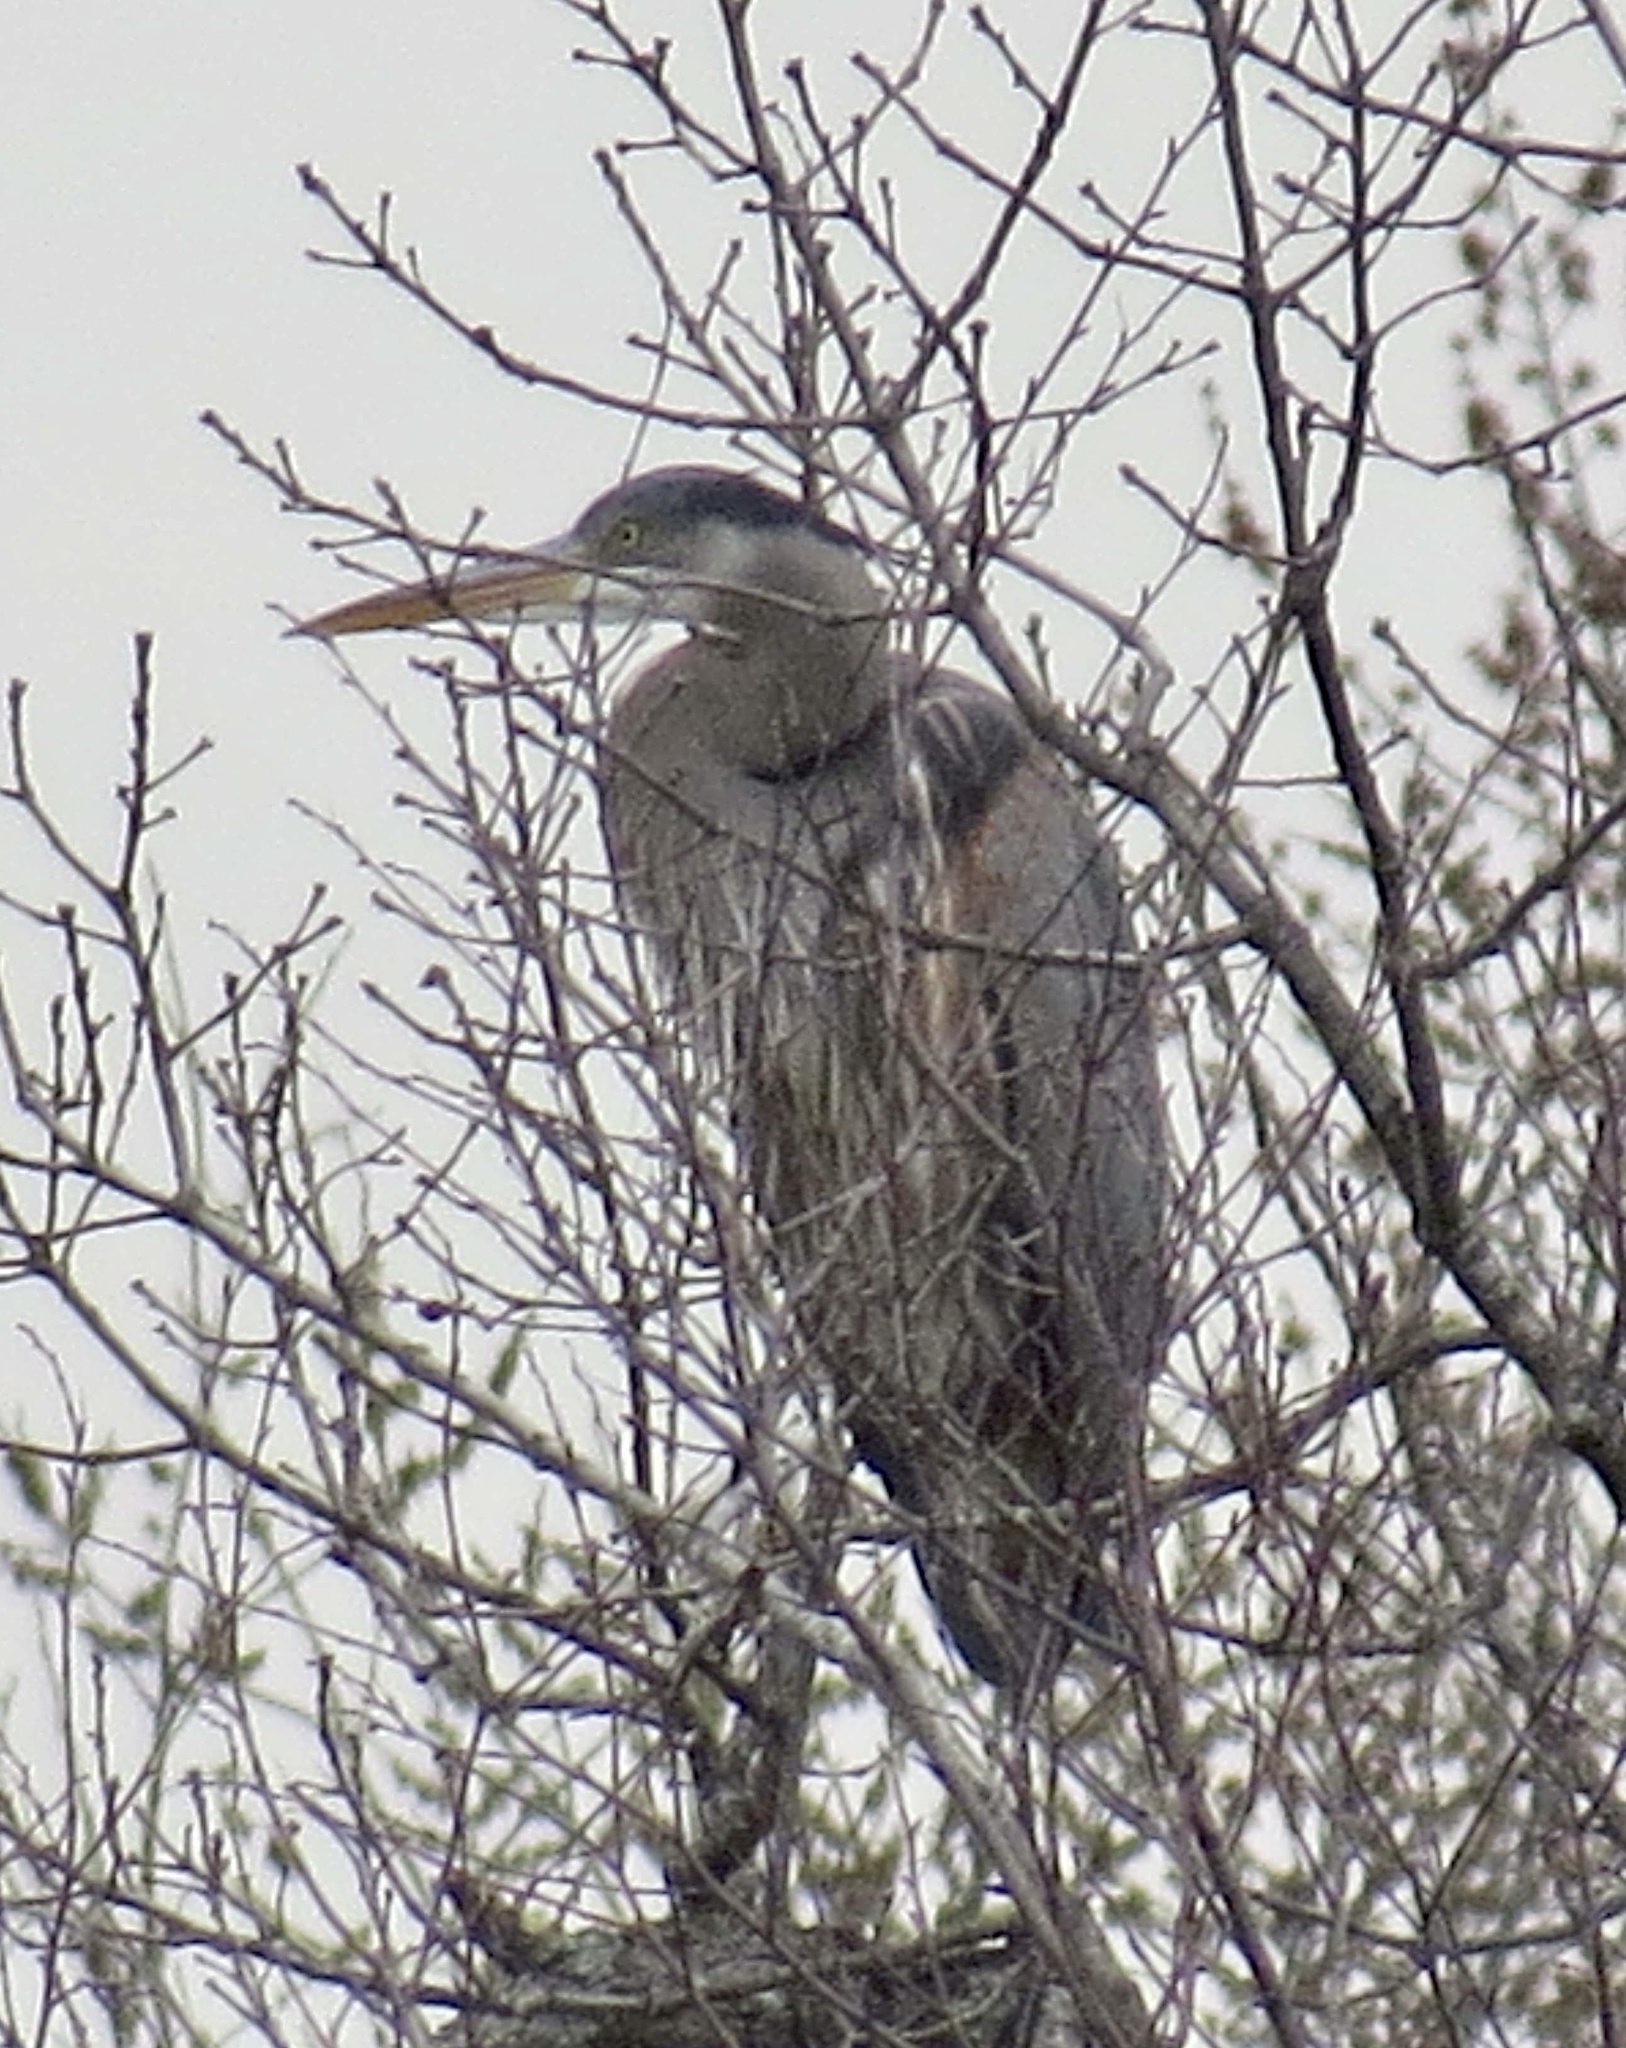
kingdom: Animalia
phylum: Chordata
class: Aves
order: Pelecaniformes
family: Ardeidae
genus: Ardea
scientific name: Ardea herodias
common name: Great blue heron
